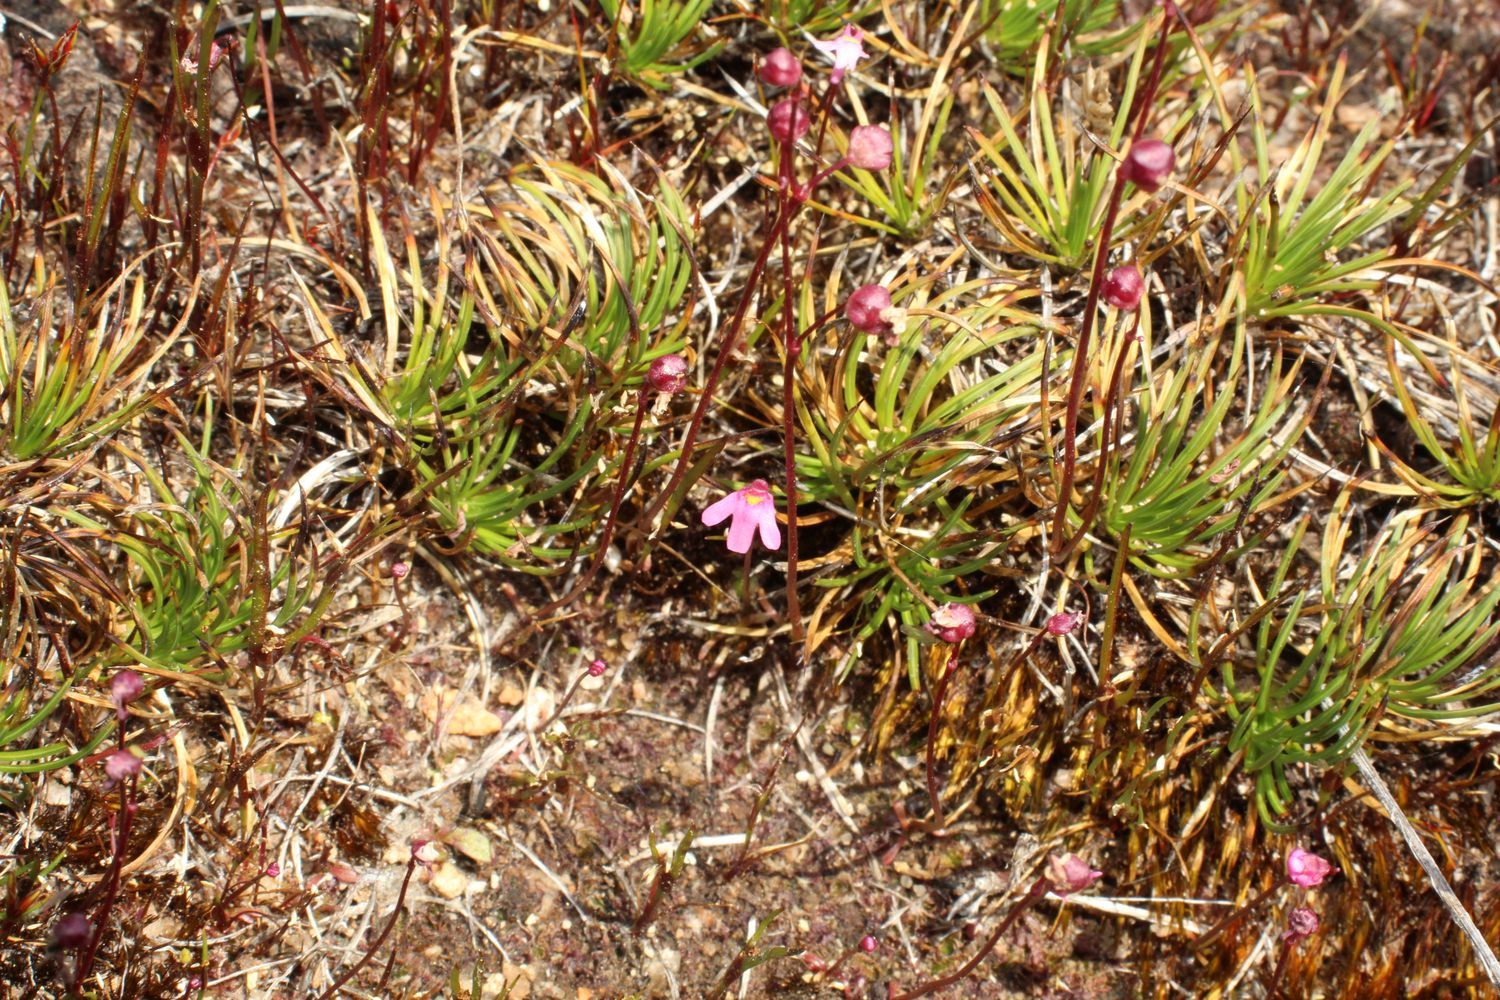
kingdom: Plantae
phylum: Tracheophyta
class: Magnoliopsida
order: Lamiales
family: Lentibulariaceae
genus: Utricularia
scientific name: Utricularia tenella
